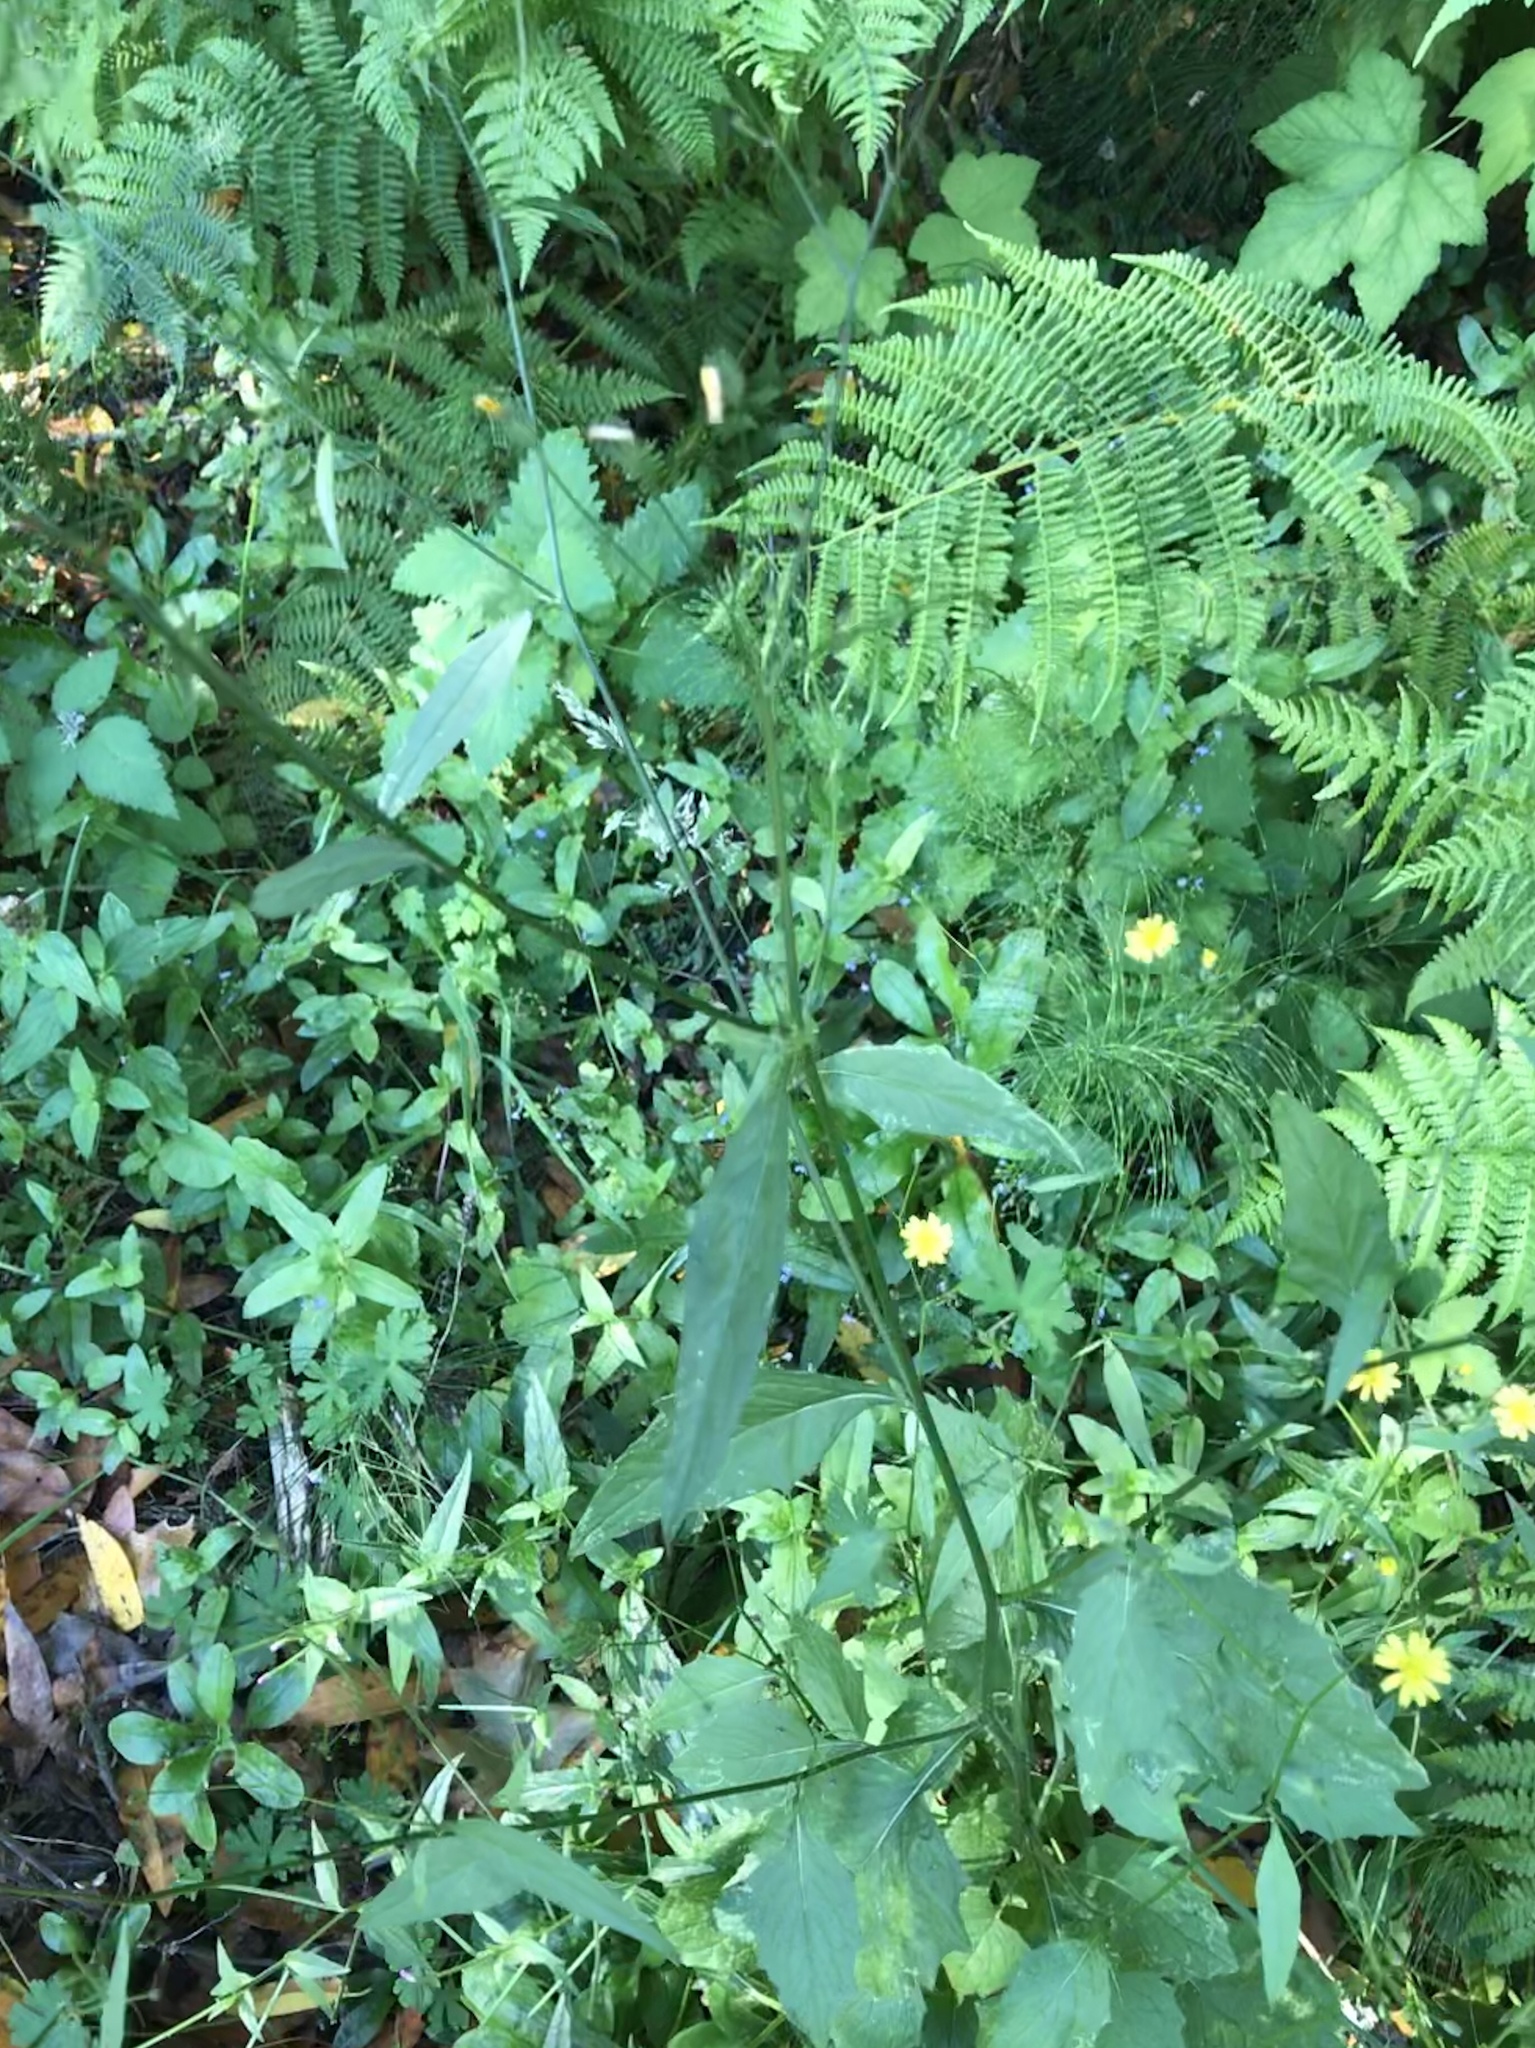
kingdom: Plantae
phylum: Tracheophyta
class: Magnoliopsida
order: Asterales
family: Asteraceae
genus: Lapsana
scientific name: Lapsana communis
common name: Nipplewort
